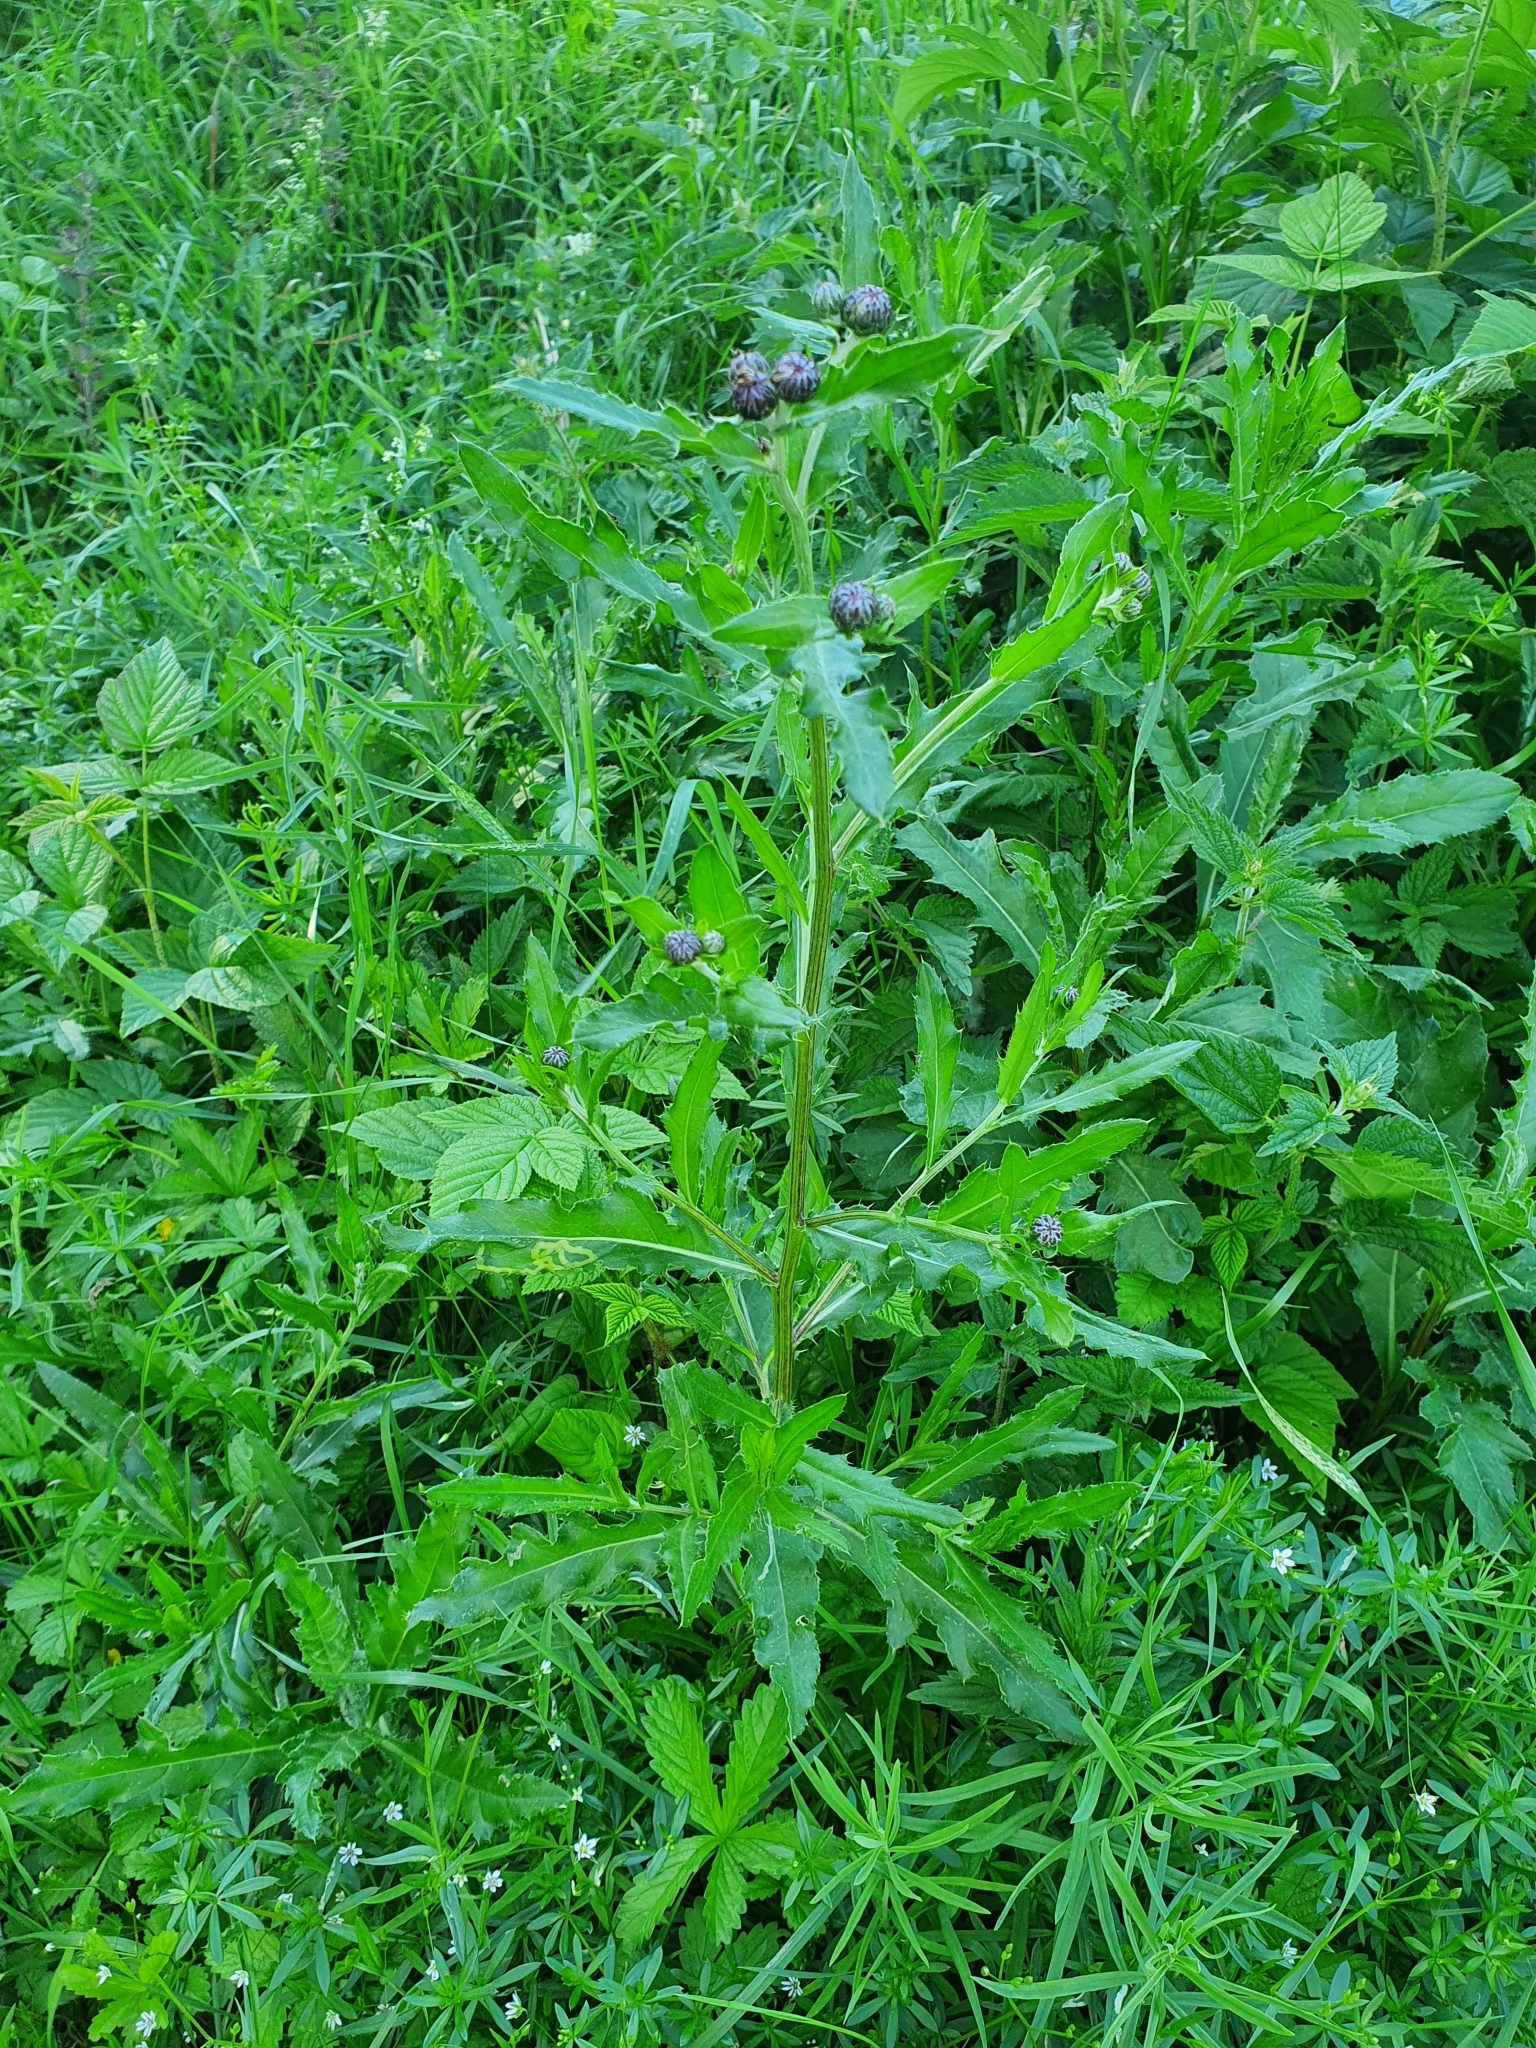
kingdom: Plantae
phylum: Tracheophyta
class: Magnoliopsida
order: Asterales
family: Asteraceae
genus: Cirsium
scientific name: Cirsium arvense
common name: Creeping thistle
